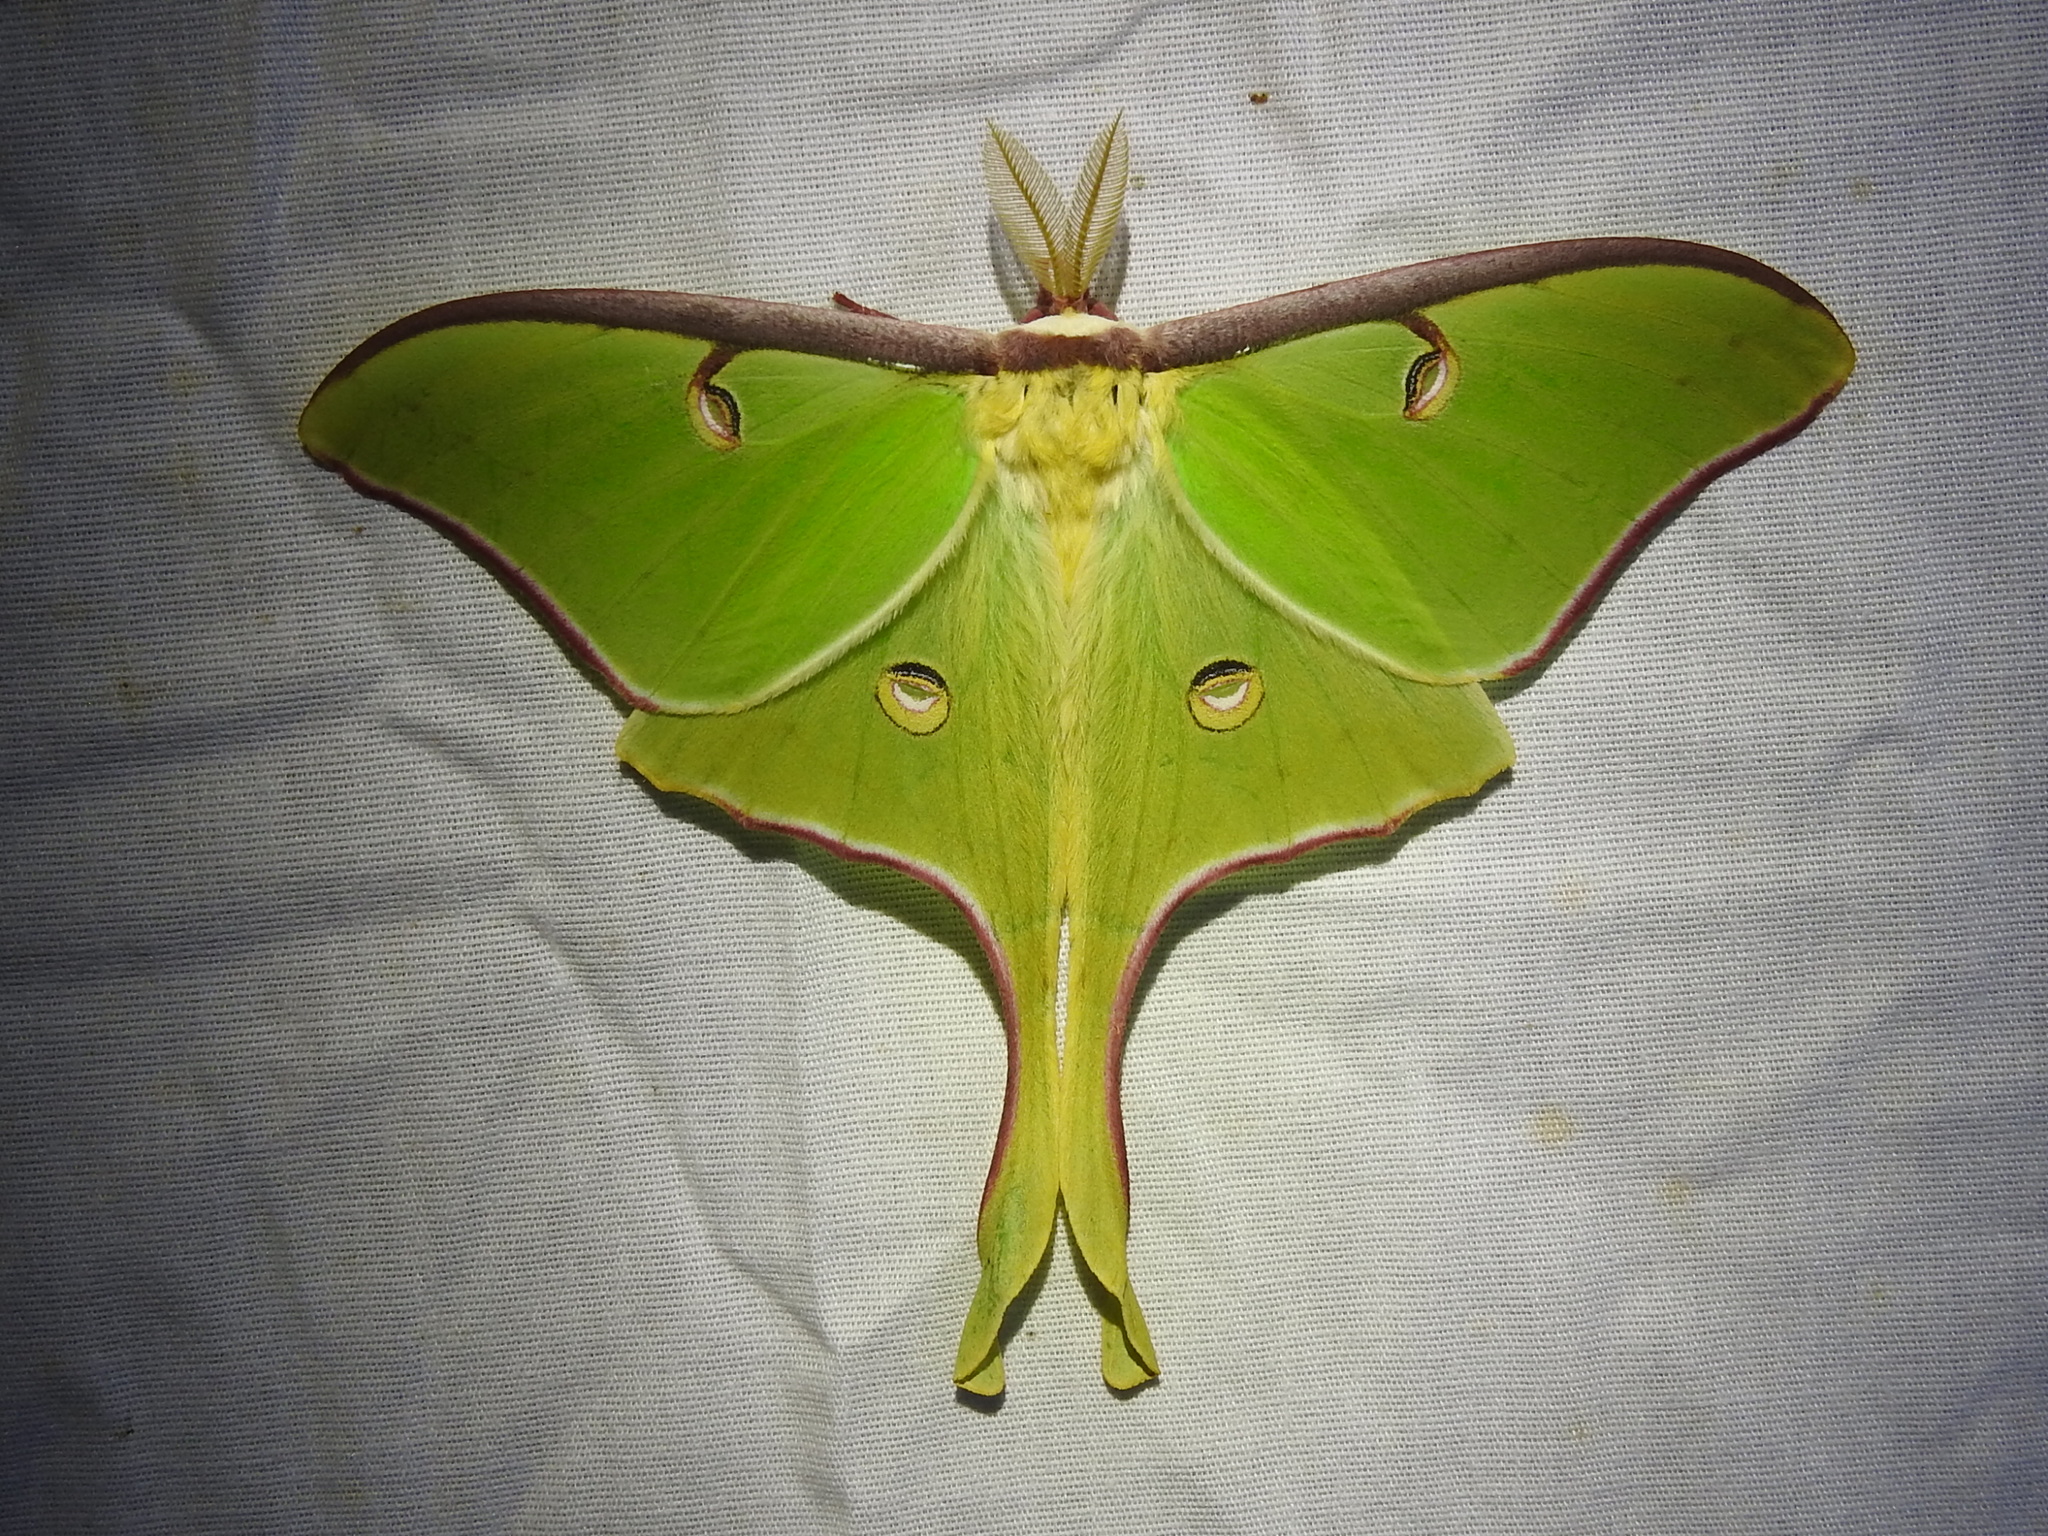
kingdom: Animalia
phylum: Arthropoda
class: Insecta
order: Lepidoptera
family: Saturniidae
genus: Actias
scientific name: Actias luna
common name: Luna moth
